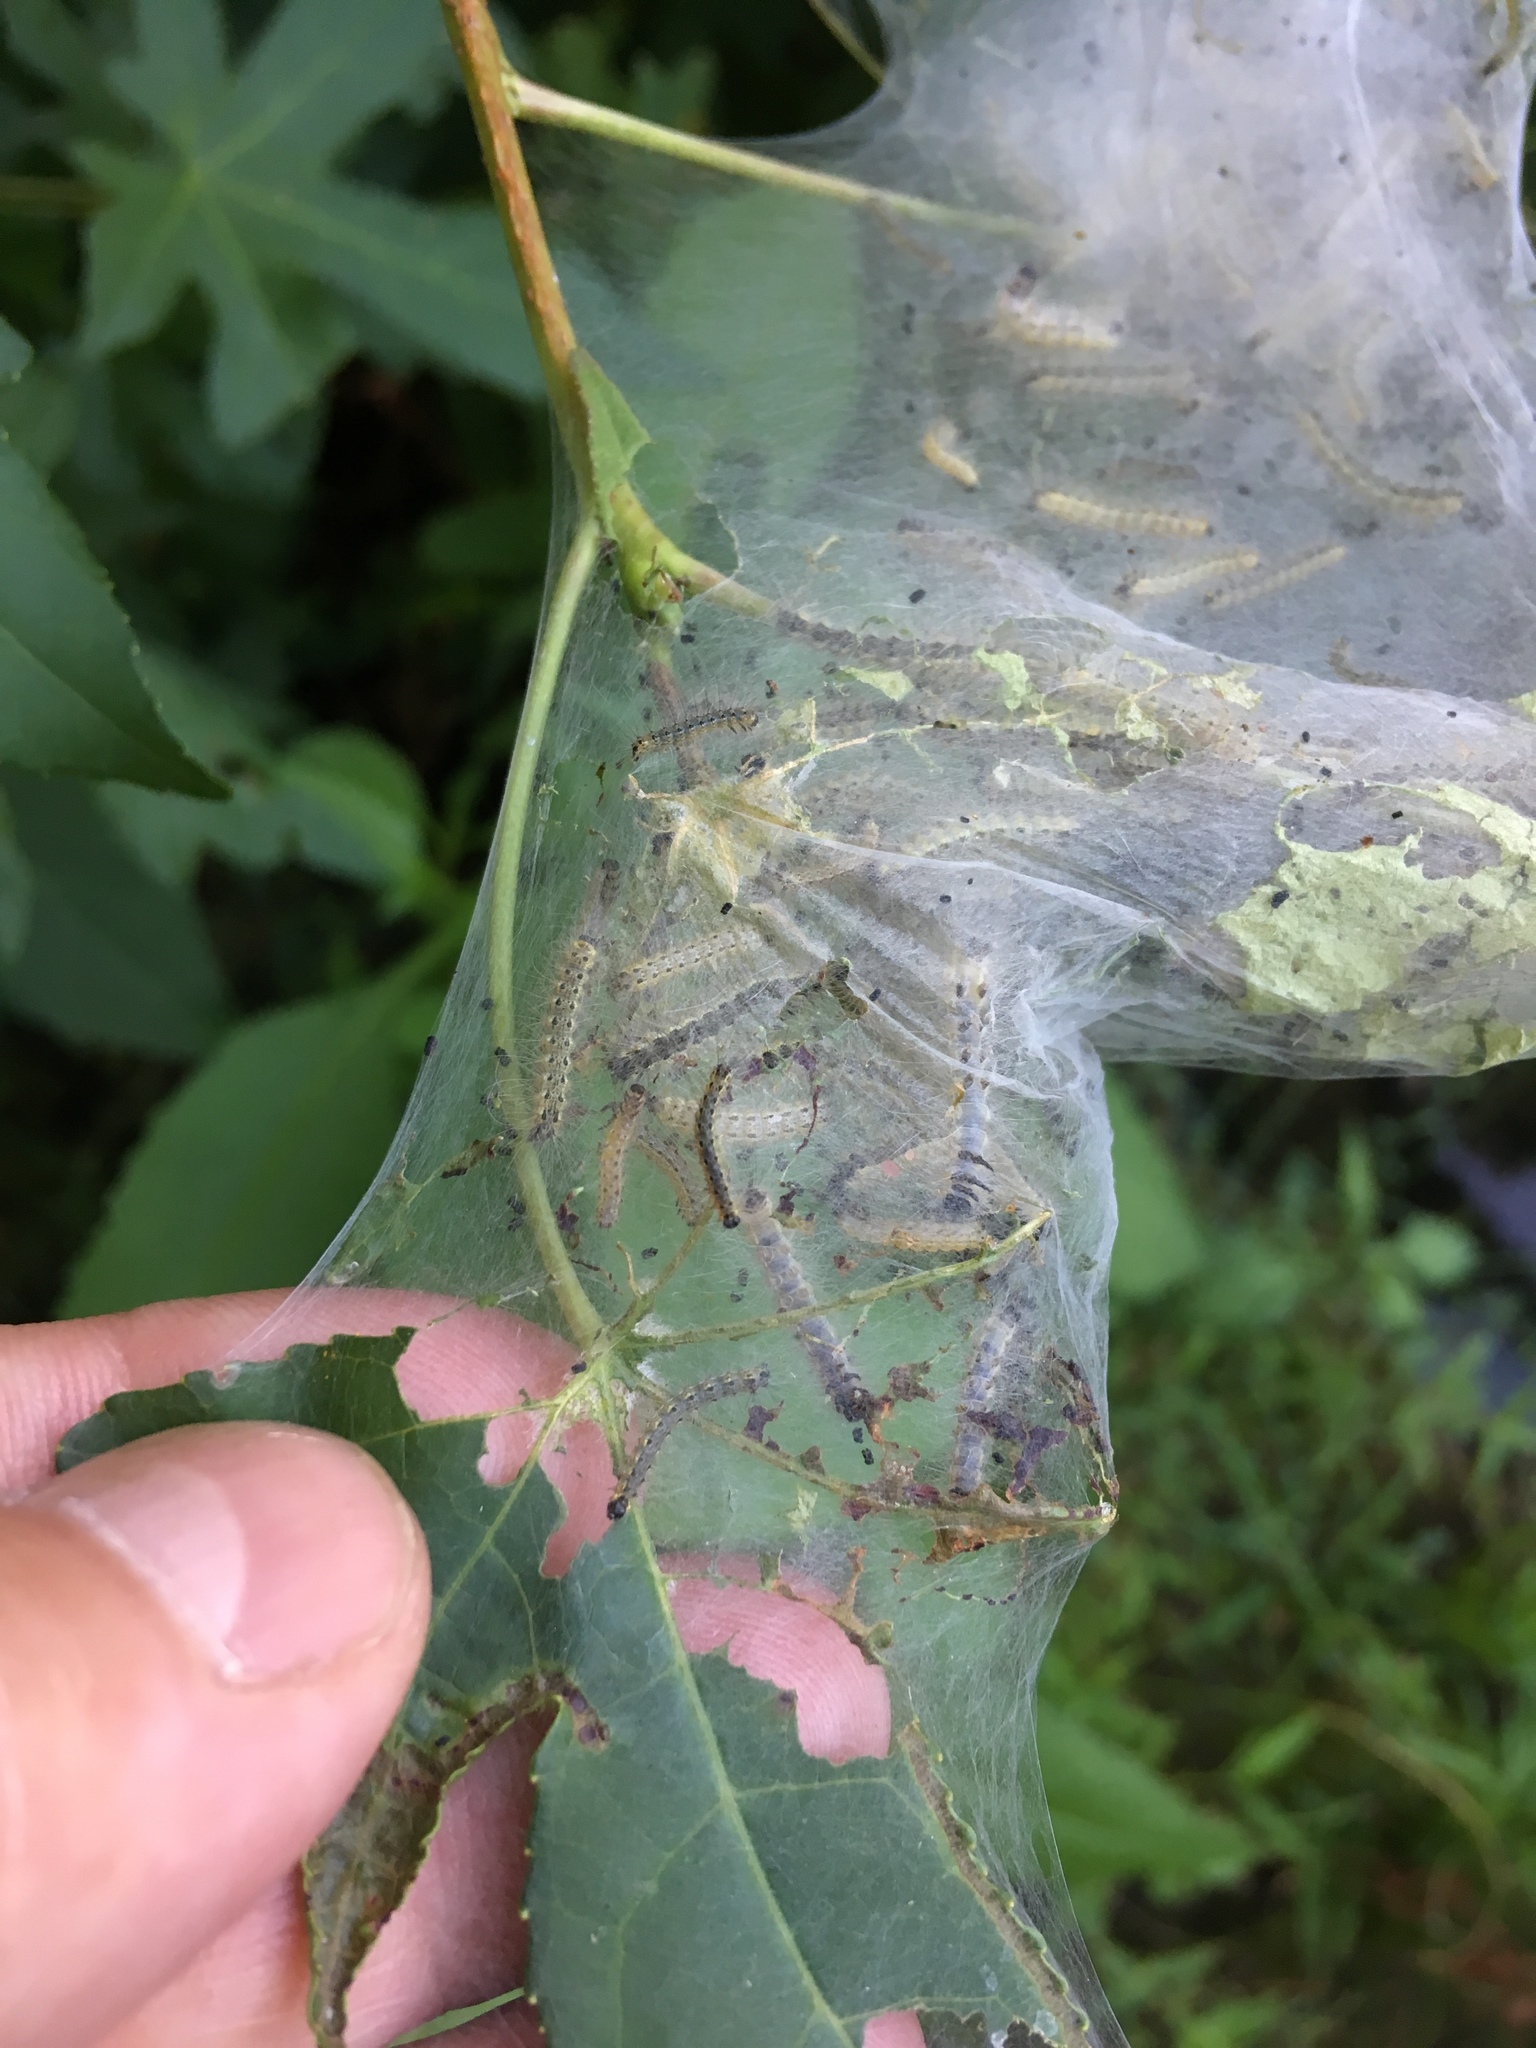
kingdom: Animalia
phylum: Arthropoda
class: Insecta
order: Lepidoptera
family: Erebidae
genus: Hyphantria
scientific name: Hyphantria cunea
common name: American white moth
